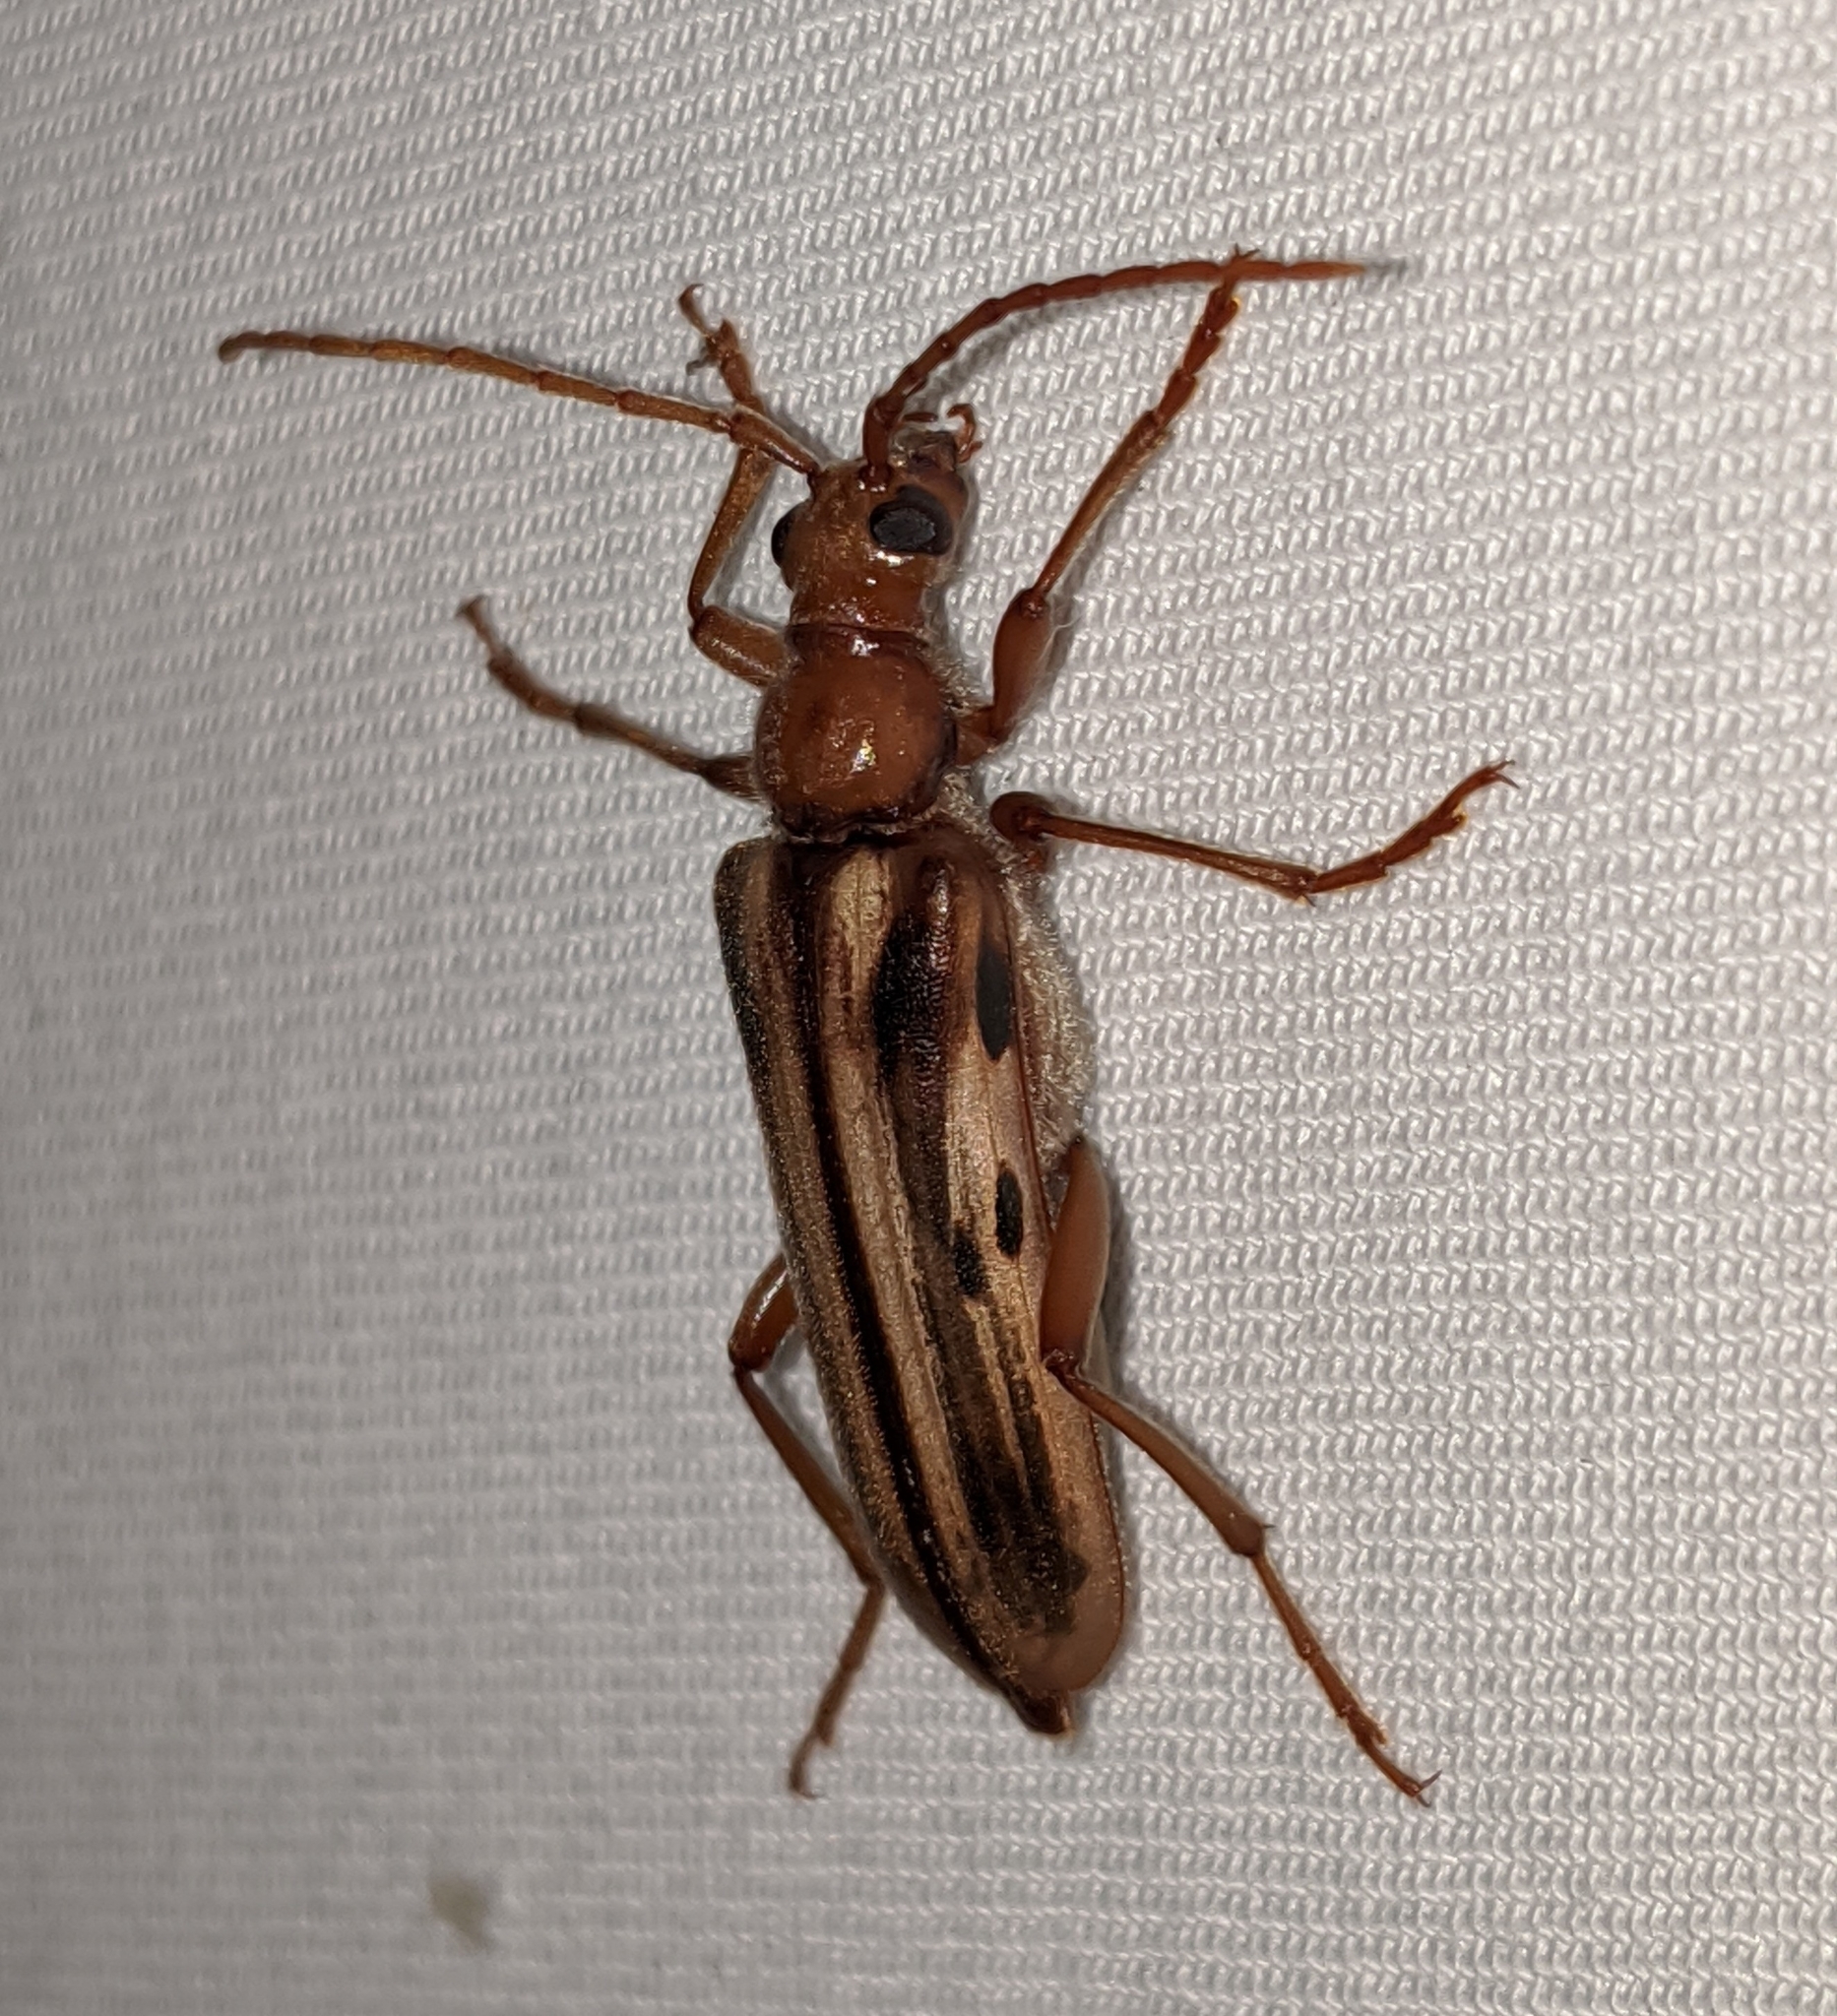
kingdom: Animalia
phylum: Arthropoda
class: Insecta
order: Coleoptera
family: Cerambycidae
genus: Ortholeptura
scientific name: Ortholeptura valida
